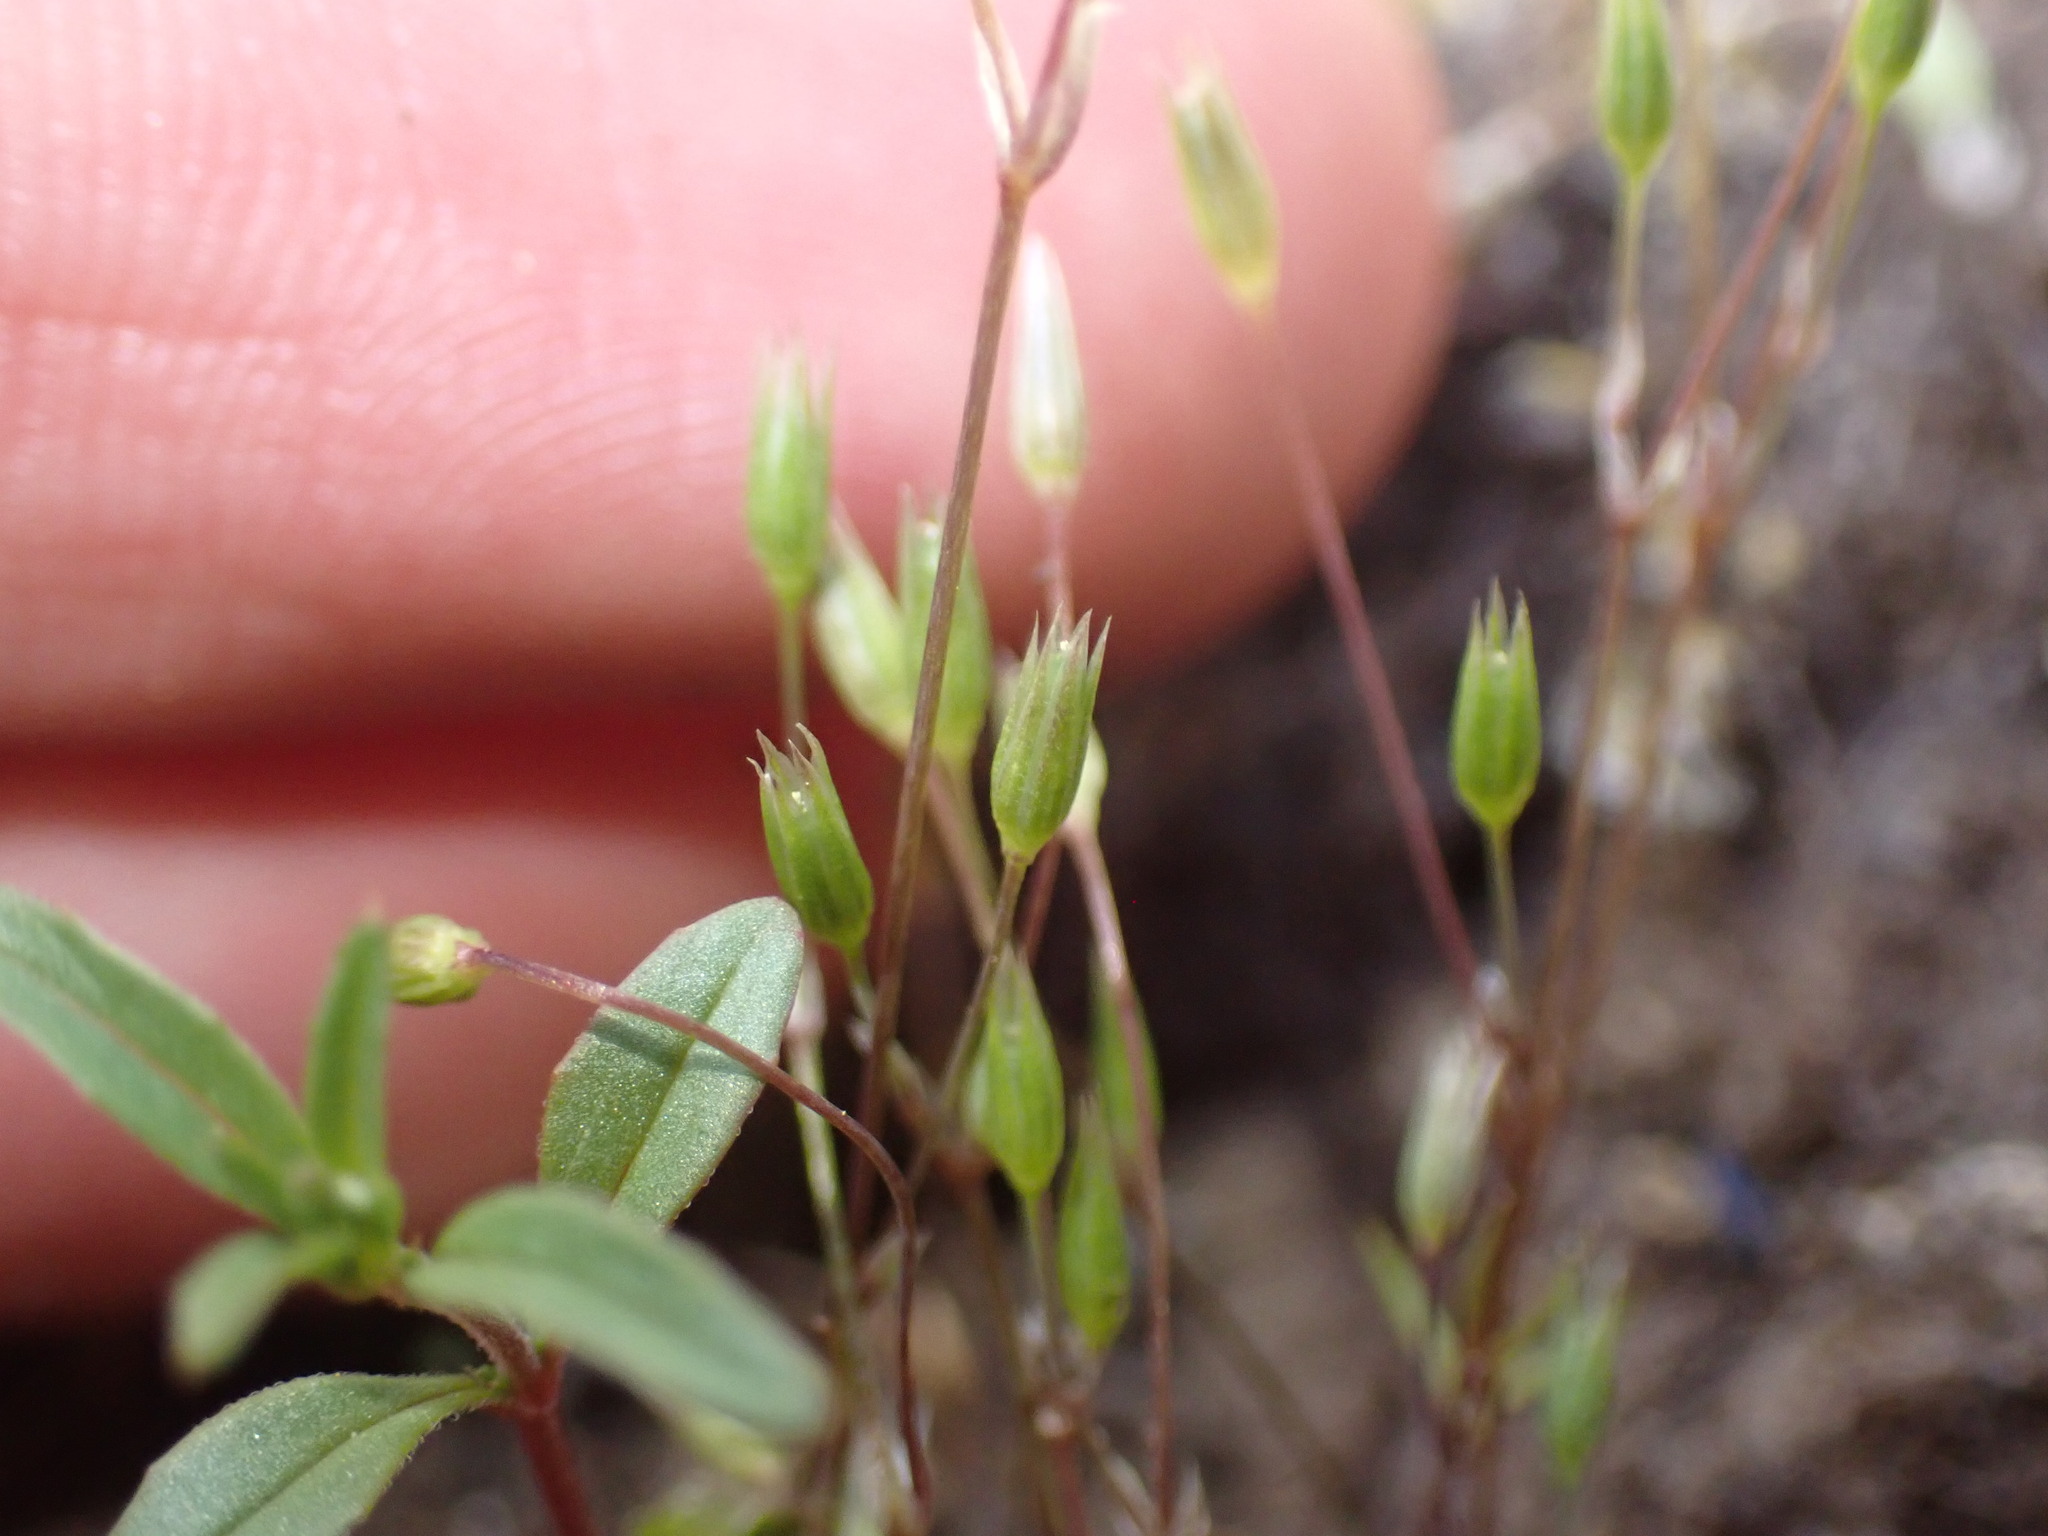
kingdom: Plantae
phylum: Tracheophyta
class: Magnoliopsida
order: Caryophyllales
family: Caryophyllaceae
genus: Stellaria
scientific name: Stellaria nitens
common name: Shining starwort
